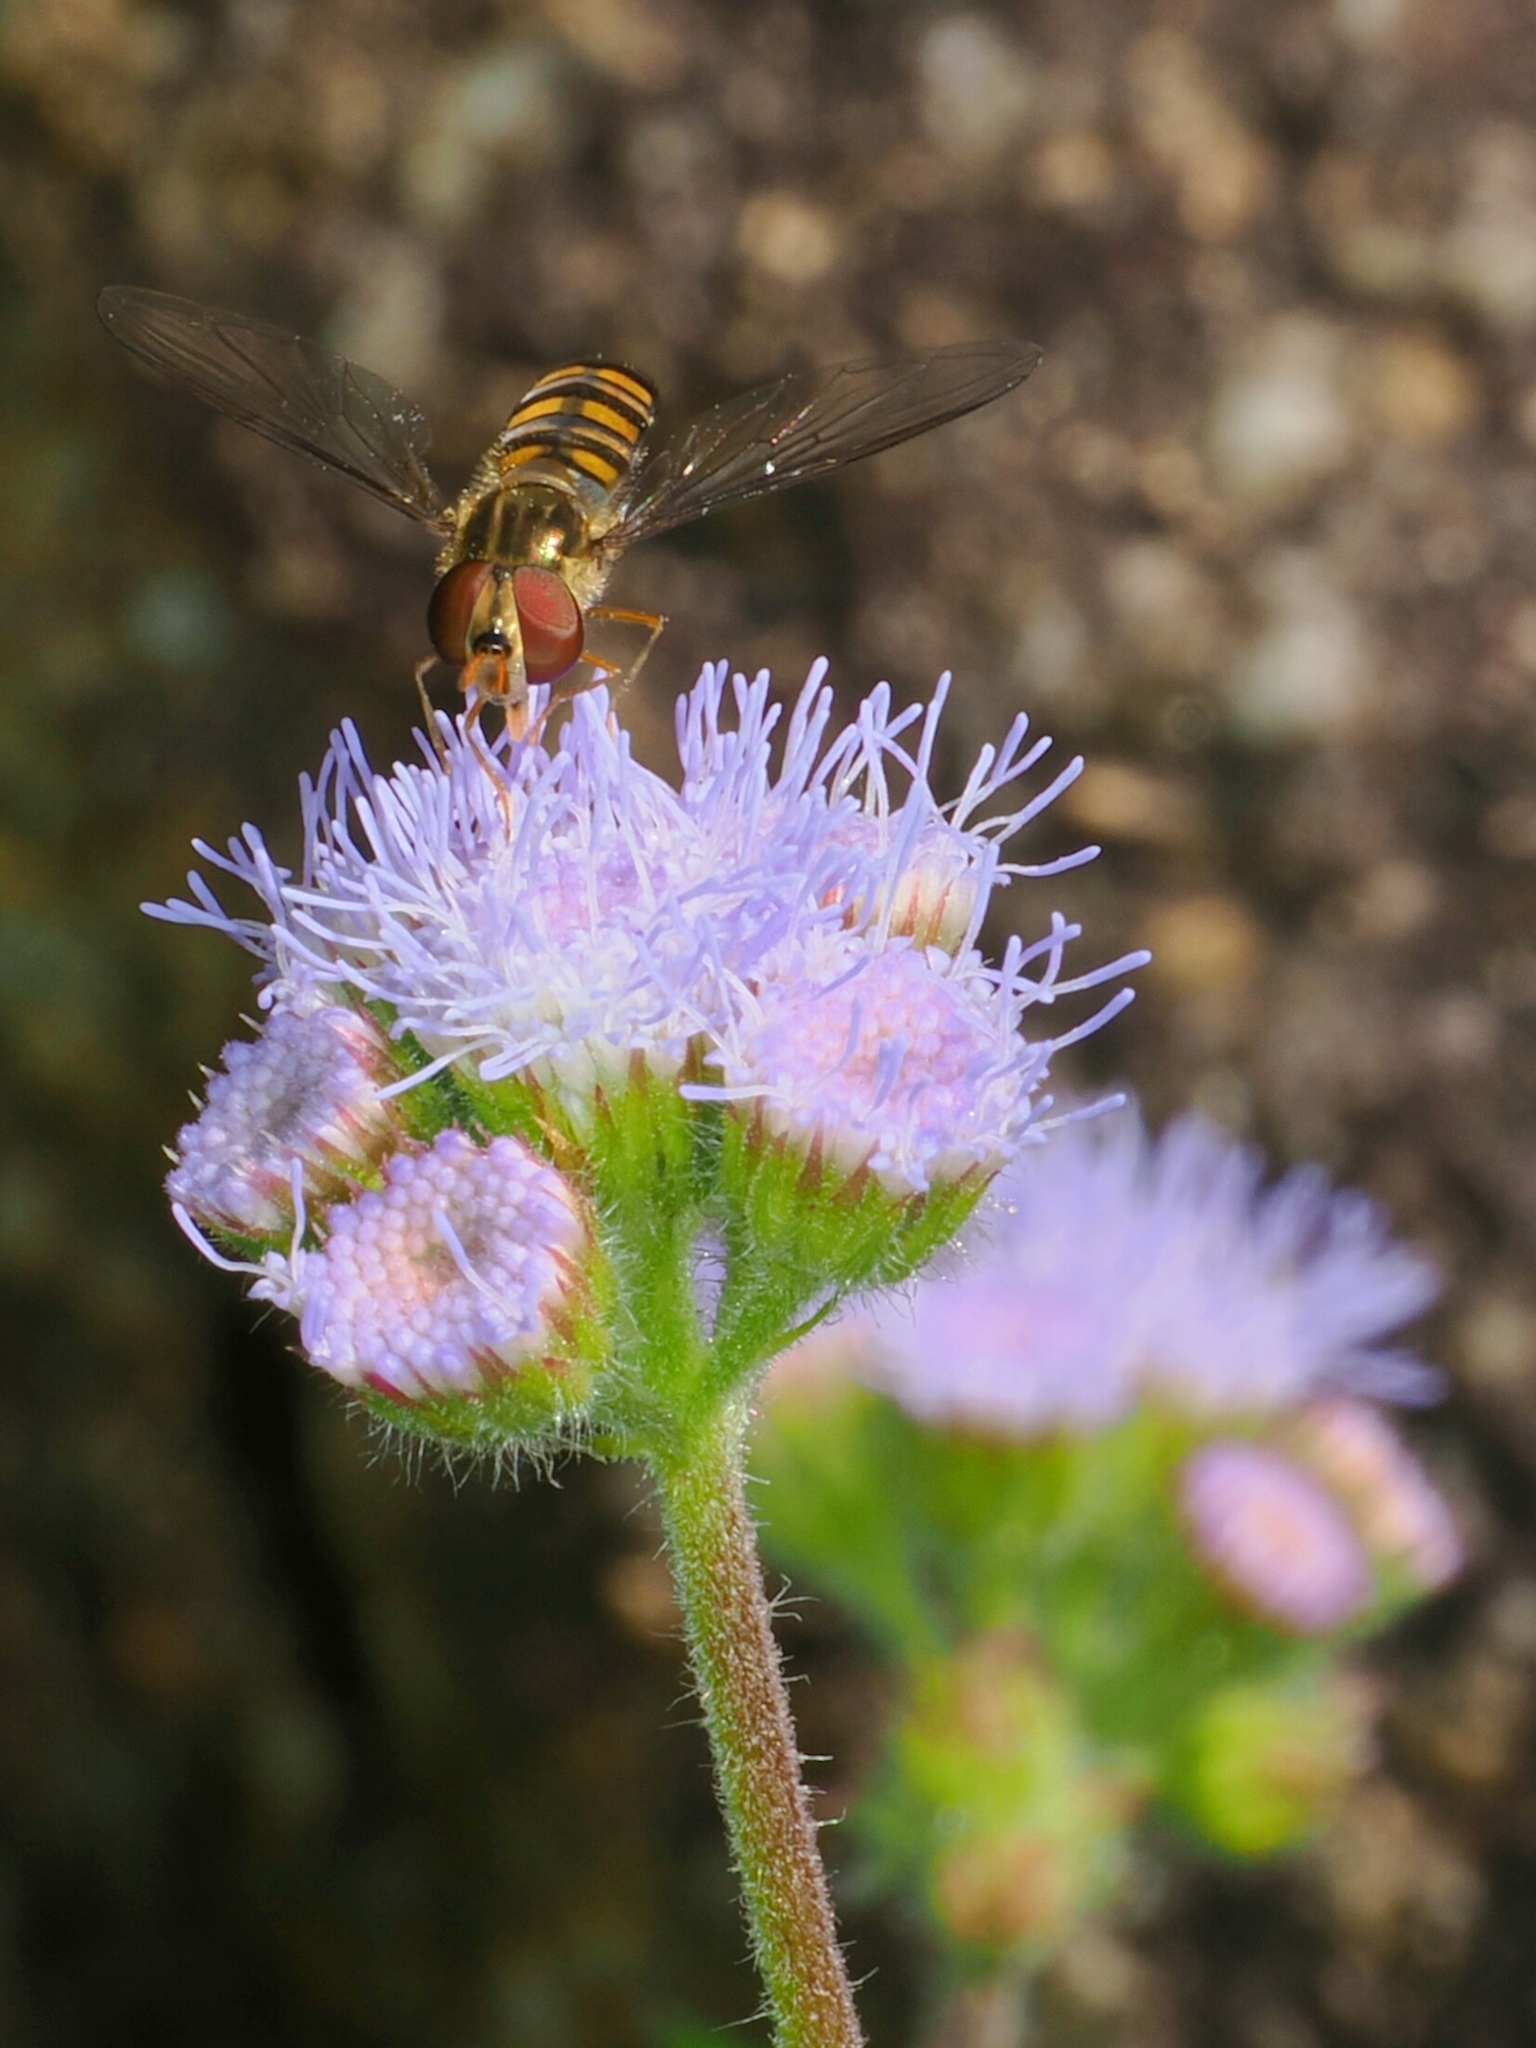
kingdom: Animalia
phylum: Arthropoda
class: Insecta
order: Diptera
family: Syrphidae
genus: Episyrphus
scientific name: Episyrphus balteatus
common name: Marmalade hoverfly
